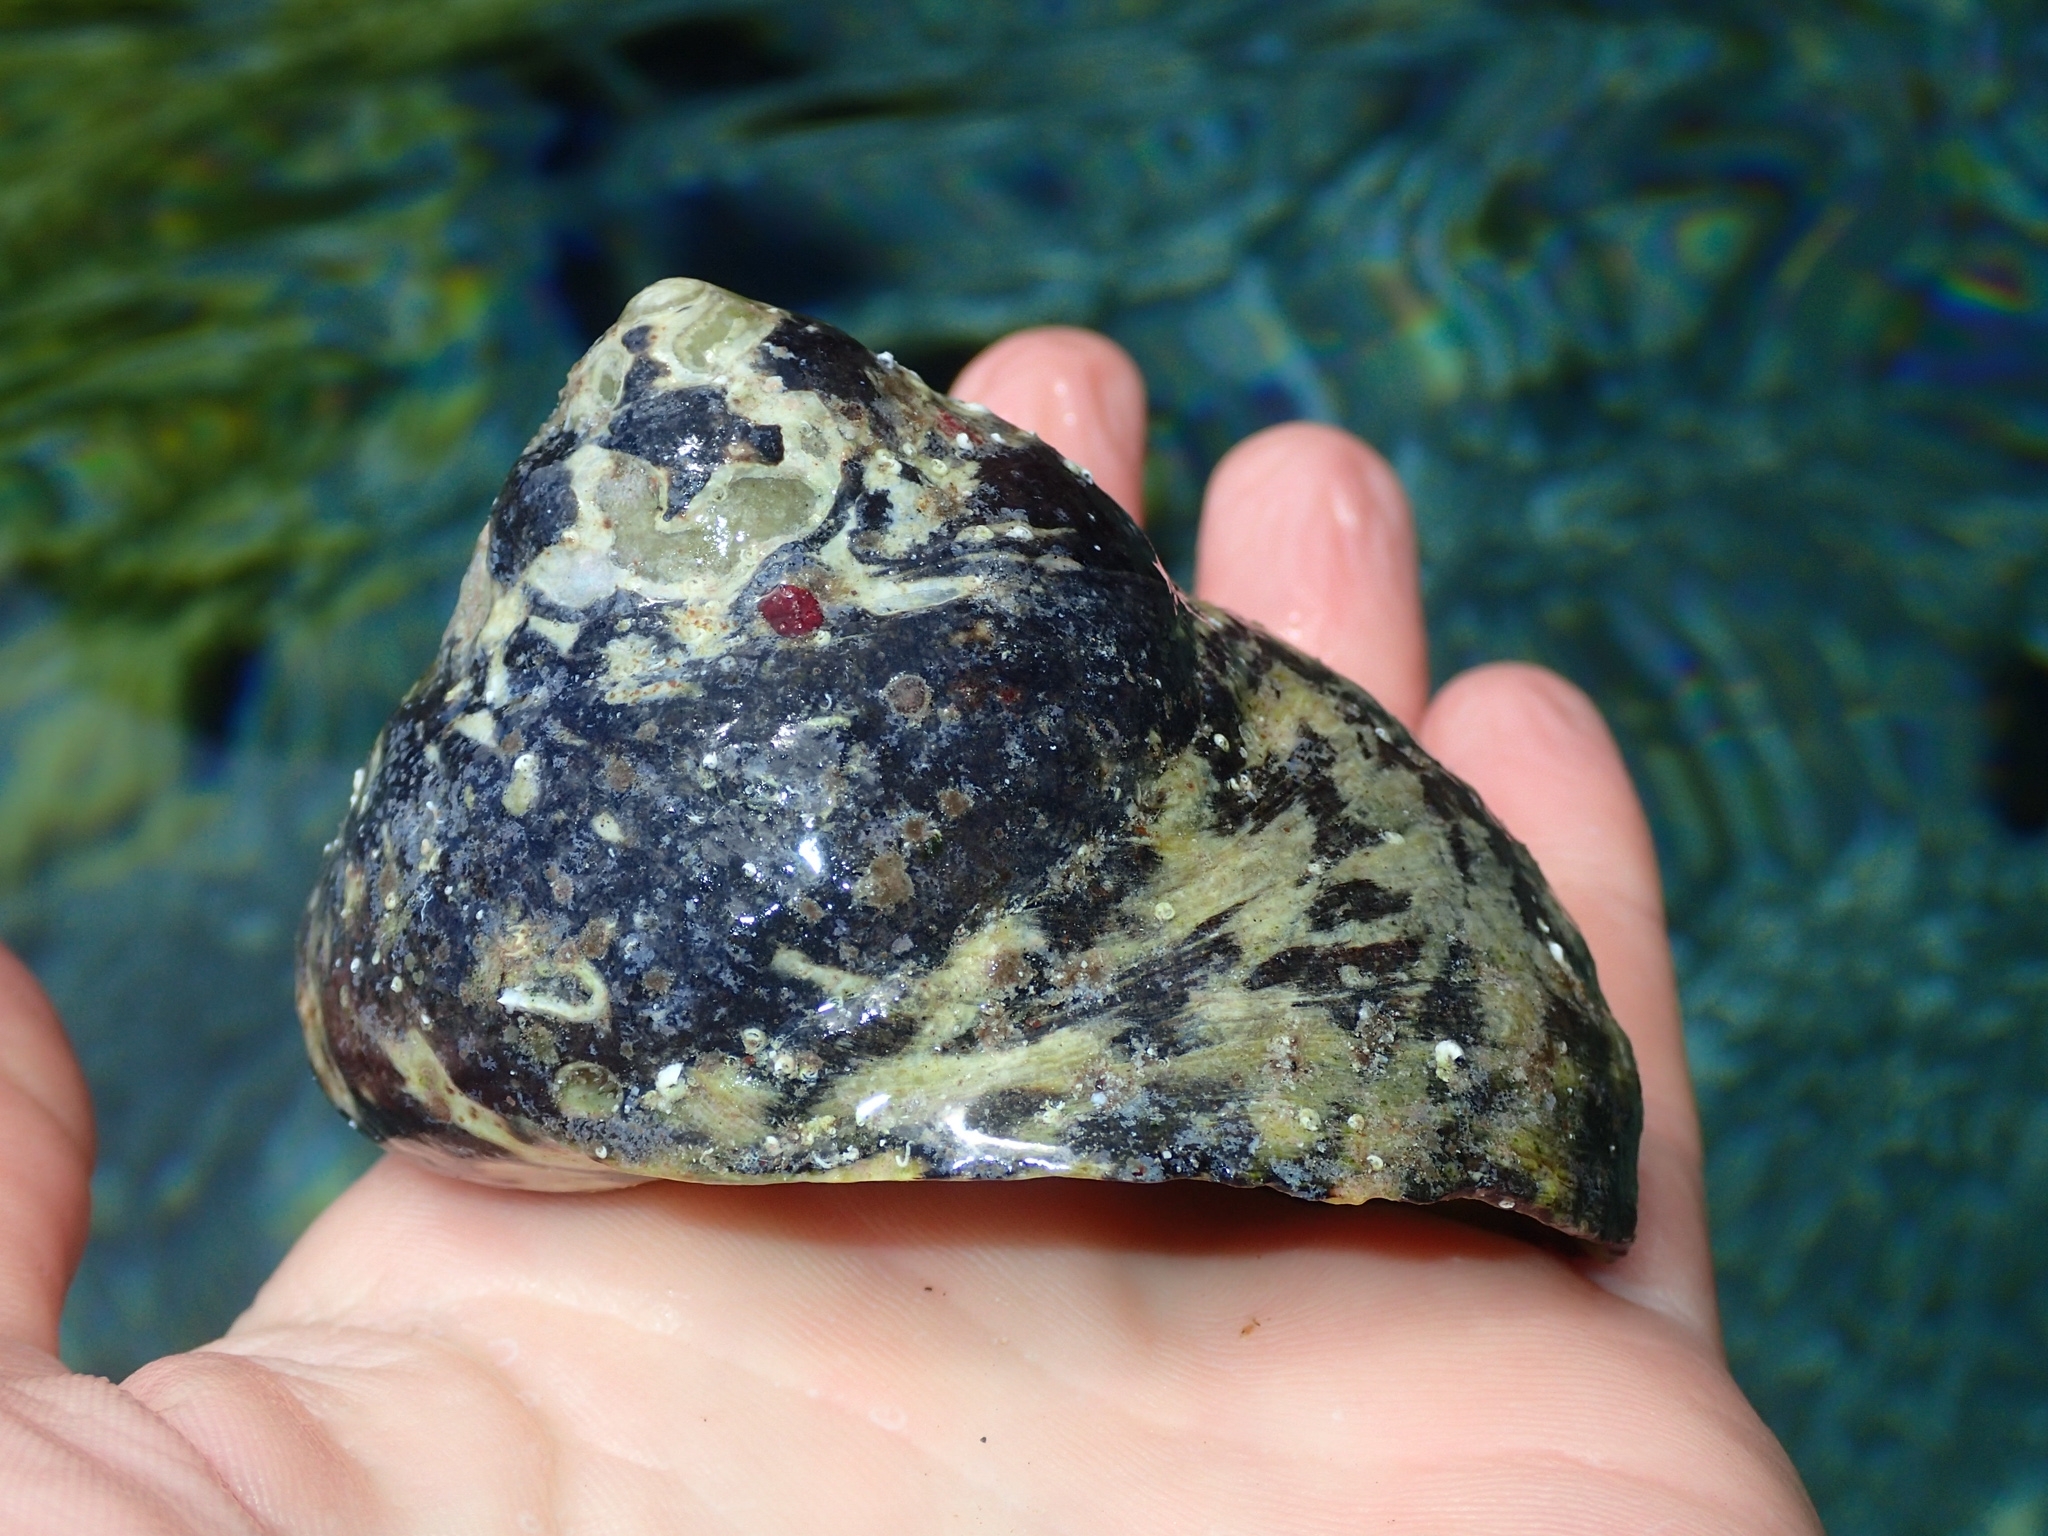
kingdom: Animalia
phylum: Mollusca
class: Gastropoda
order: Trochida
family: Tegulidae
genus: Cittarium
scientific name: Cittarium pica
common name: West indian topshell
